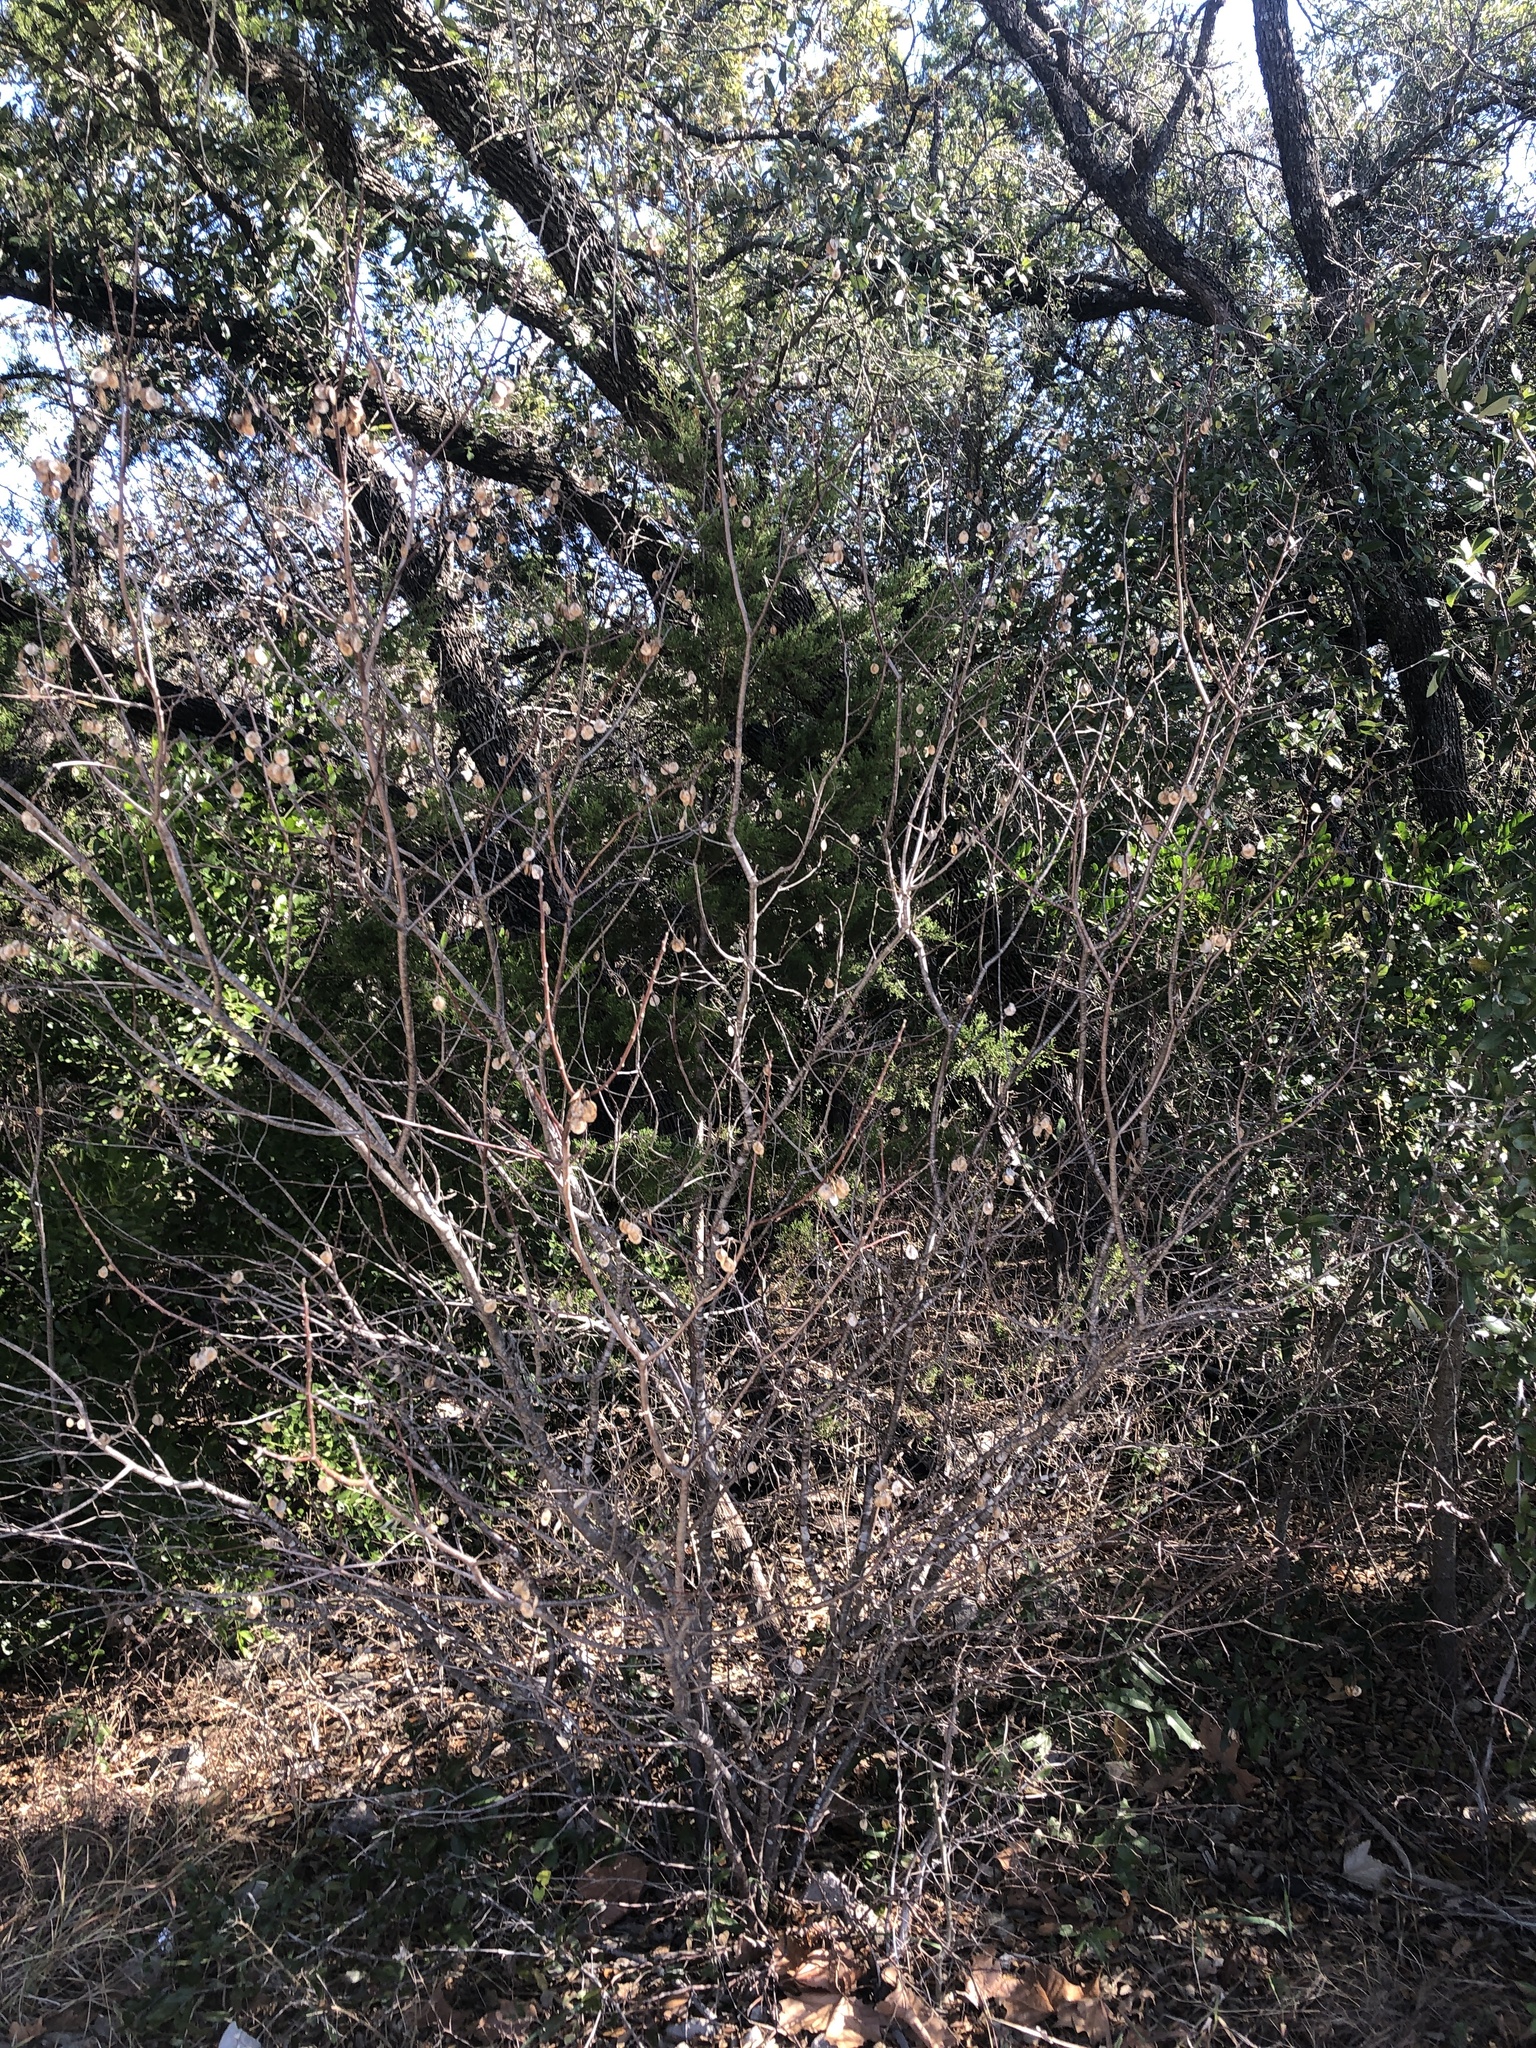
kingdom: Plantae
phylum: Tracheophyta
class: Magnoliopsida
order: Sapindales
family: Rutaceae
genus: Ptelea
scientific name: Ptelea trifoliata
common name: Common hop-tree
